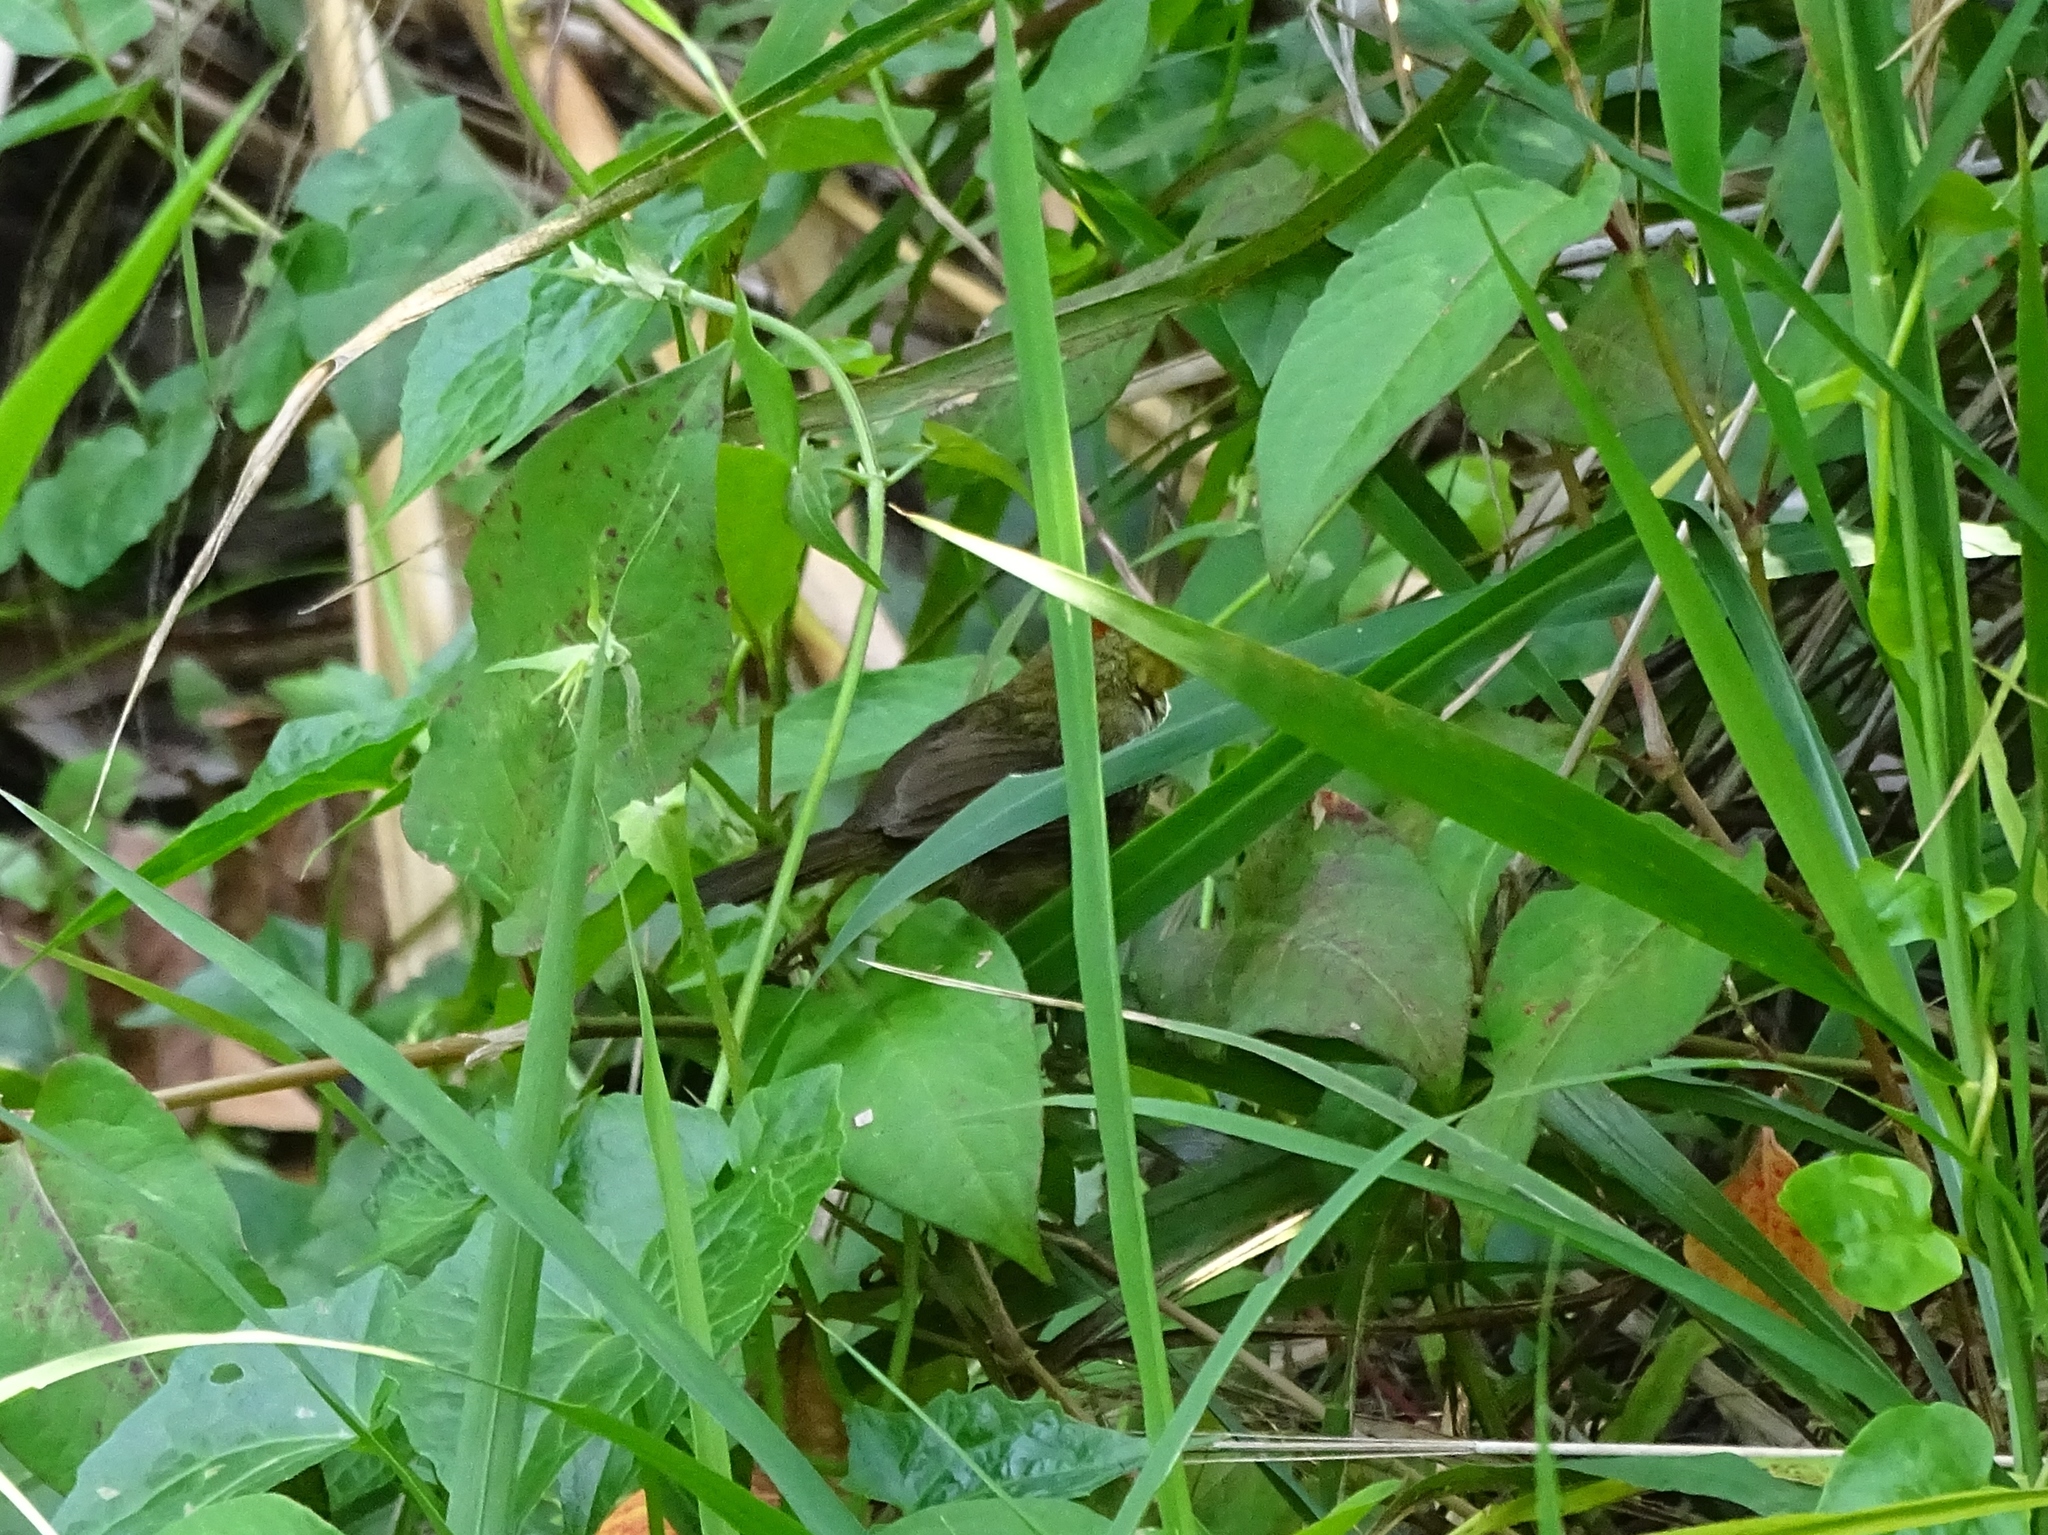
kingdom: Animalia
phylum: Chordata
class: Aves
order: Passeriformes
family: Timaliidae
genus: Stachyridopsis
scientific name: Stachyridopsis ruficeps
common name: Rufous-capped babbler
